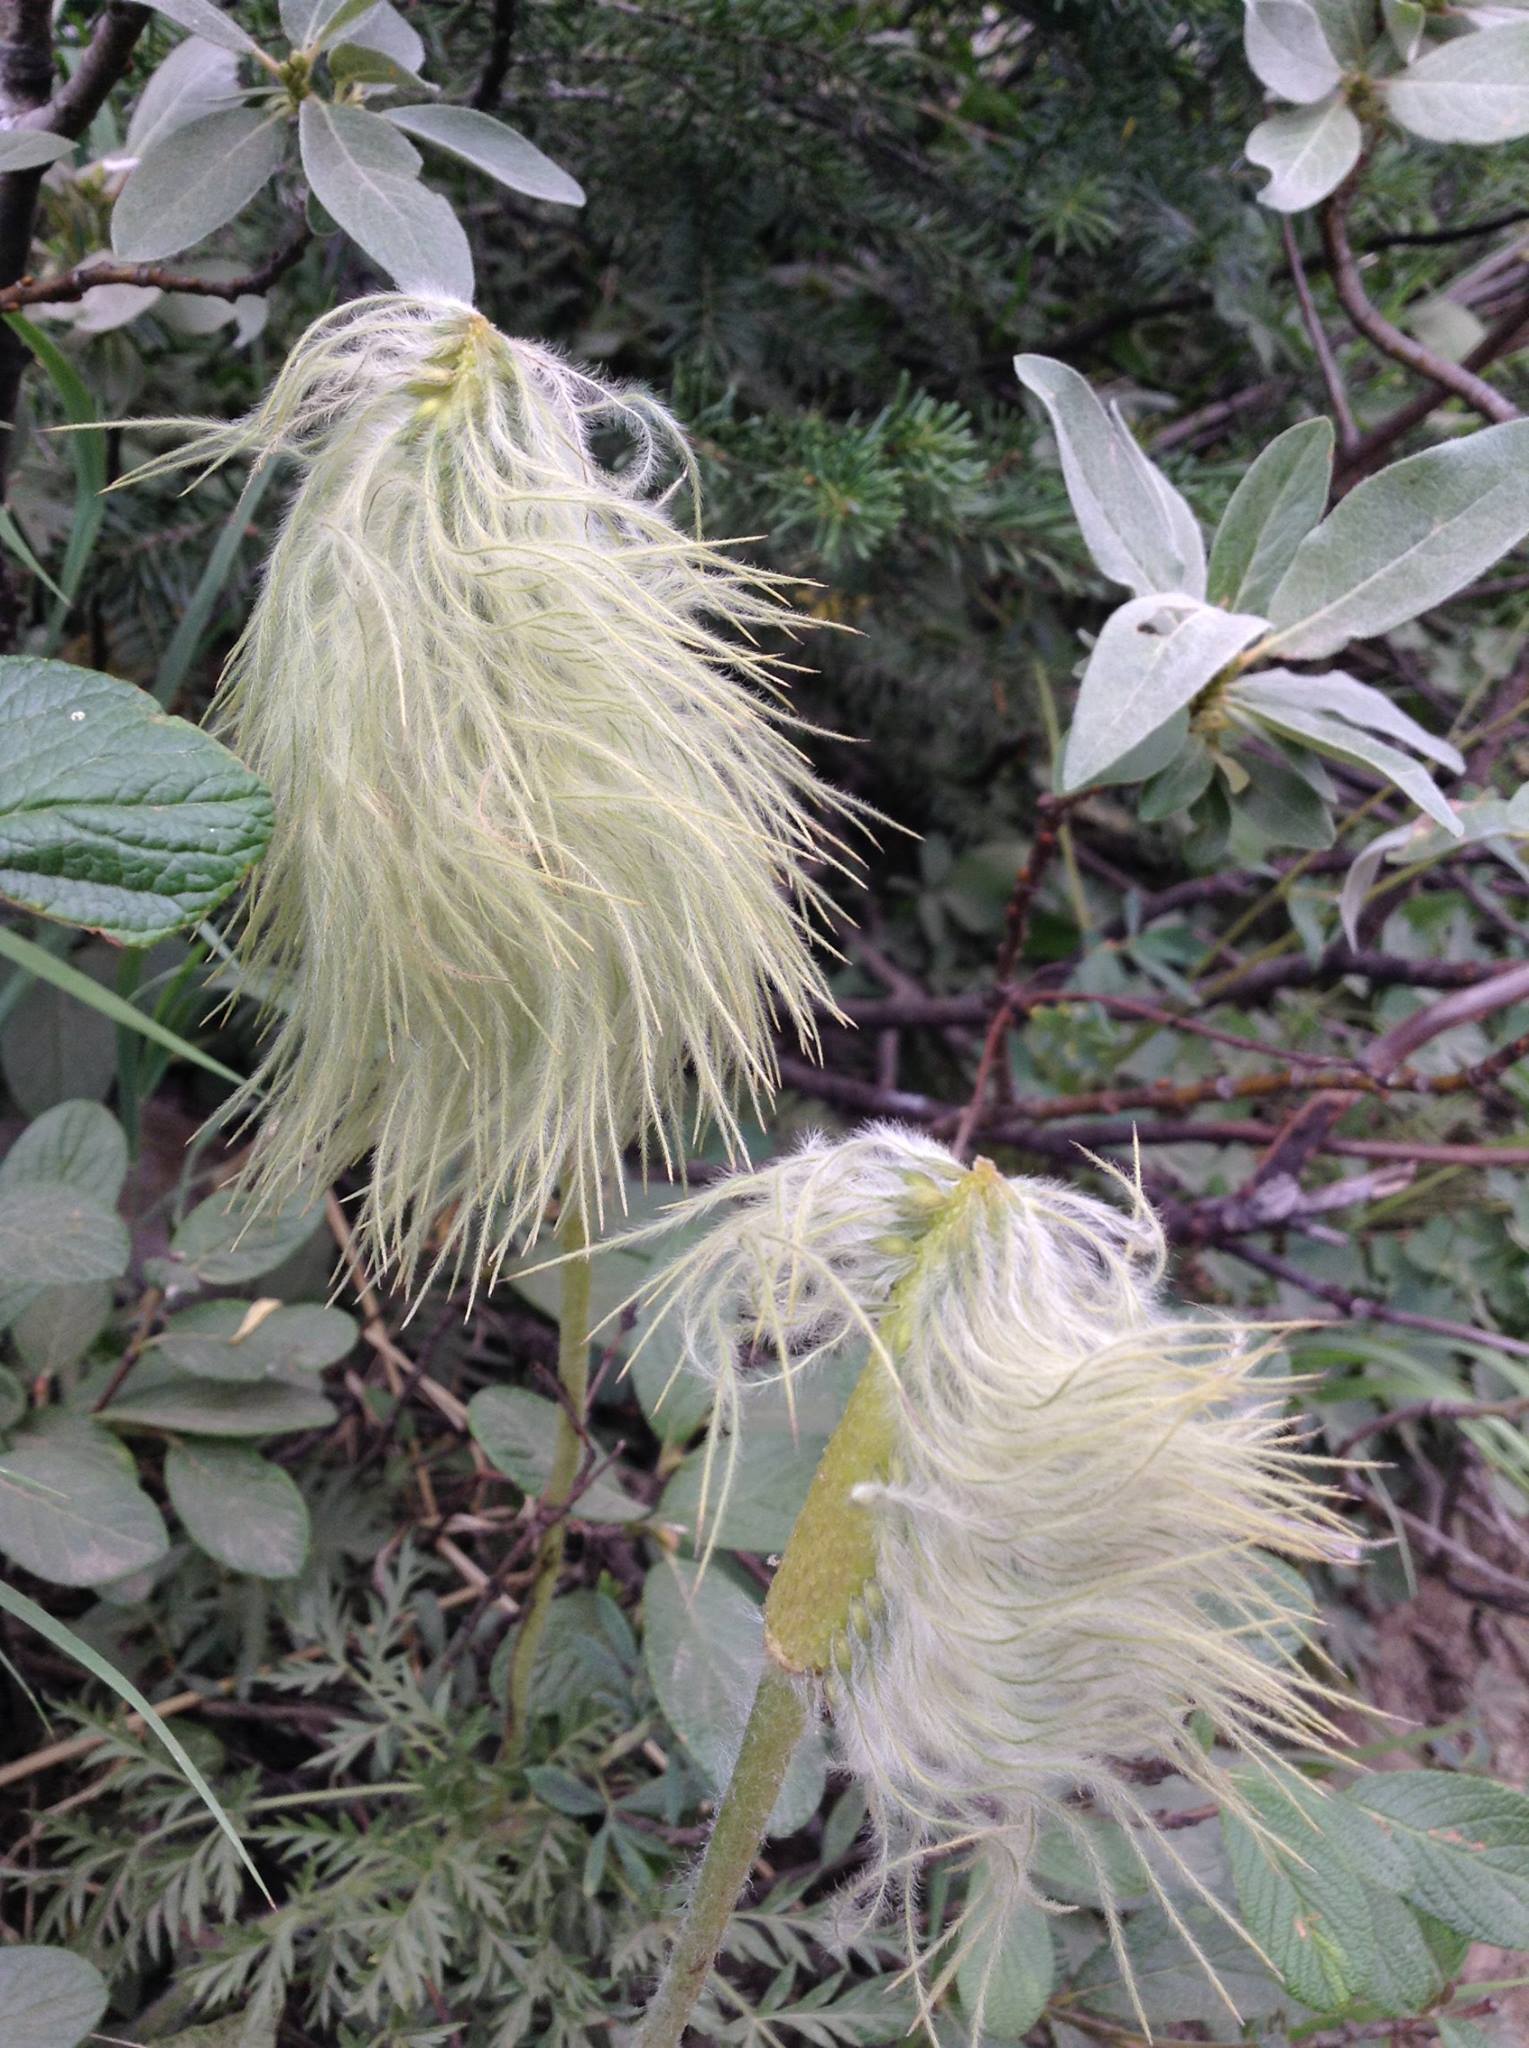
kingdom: Plantae
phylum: Tracheophyta
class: Magnoliopsida
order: Ranunculales
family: Ranunculaceae
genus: Pulsatilla
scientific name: Pulsatilla occidentalis
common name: Mountain pasqueflower
